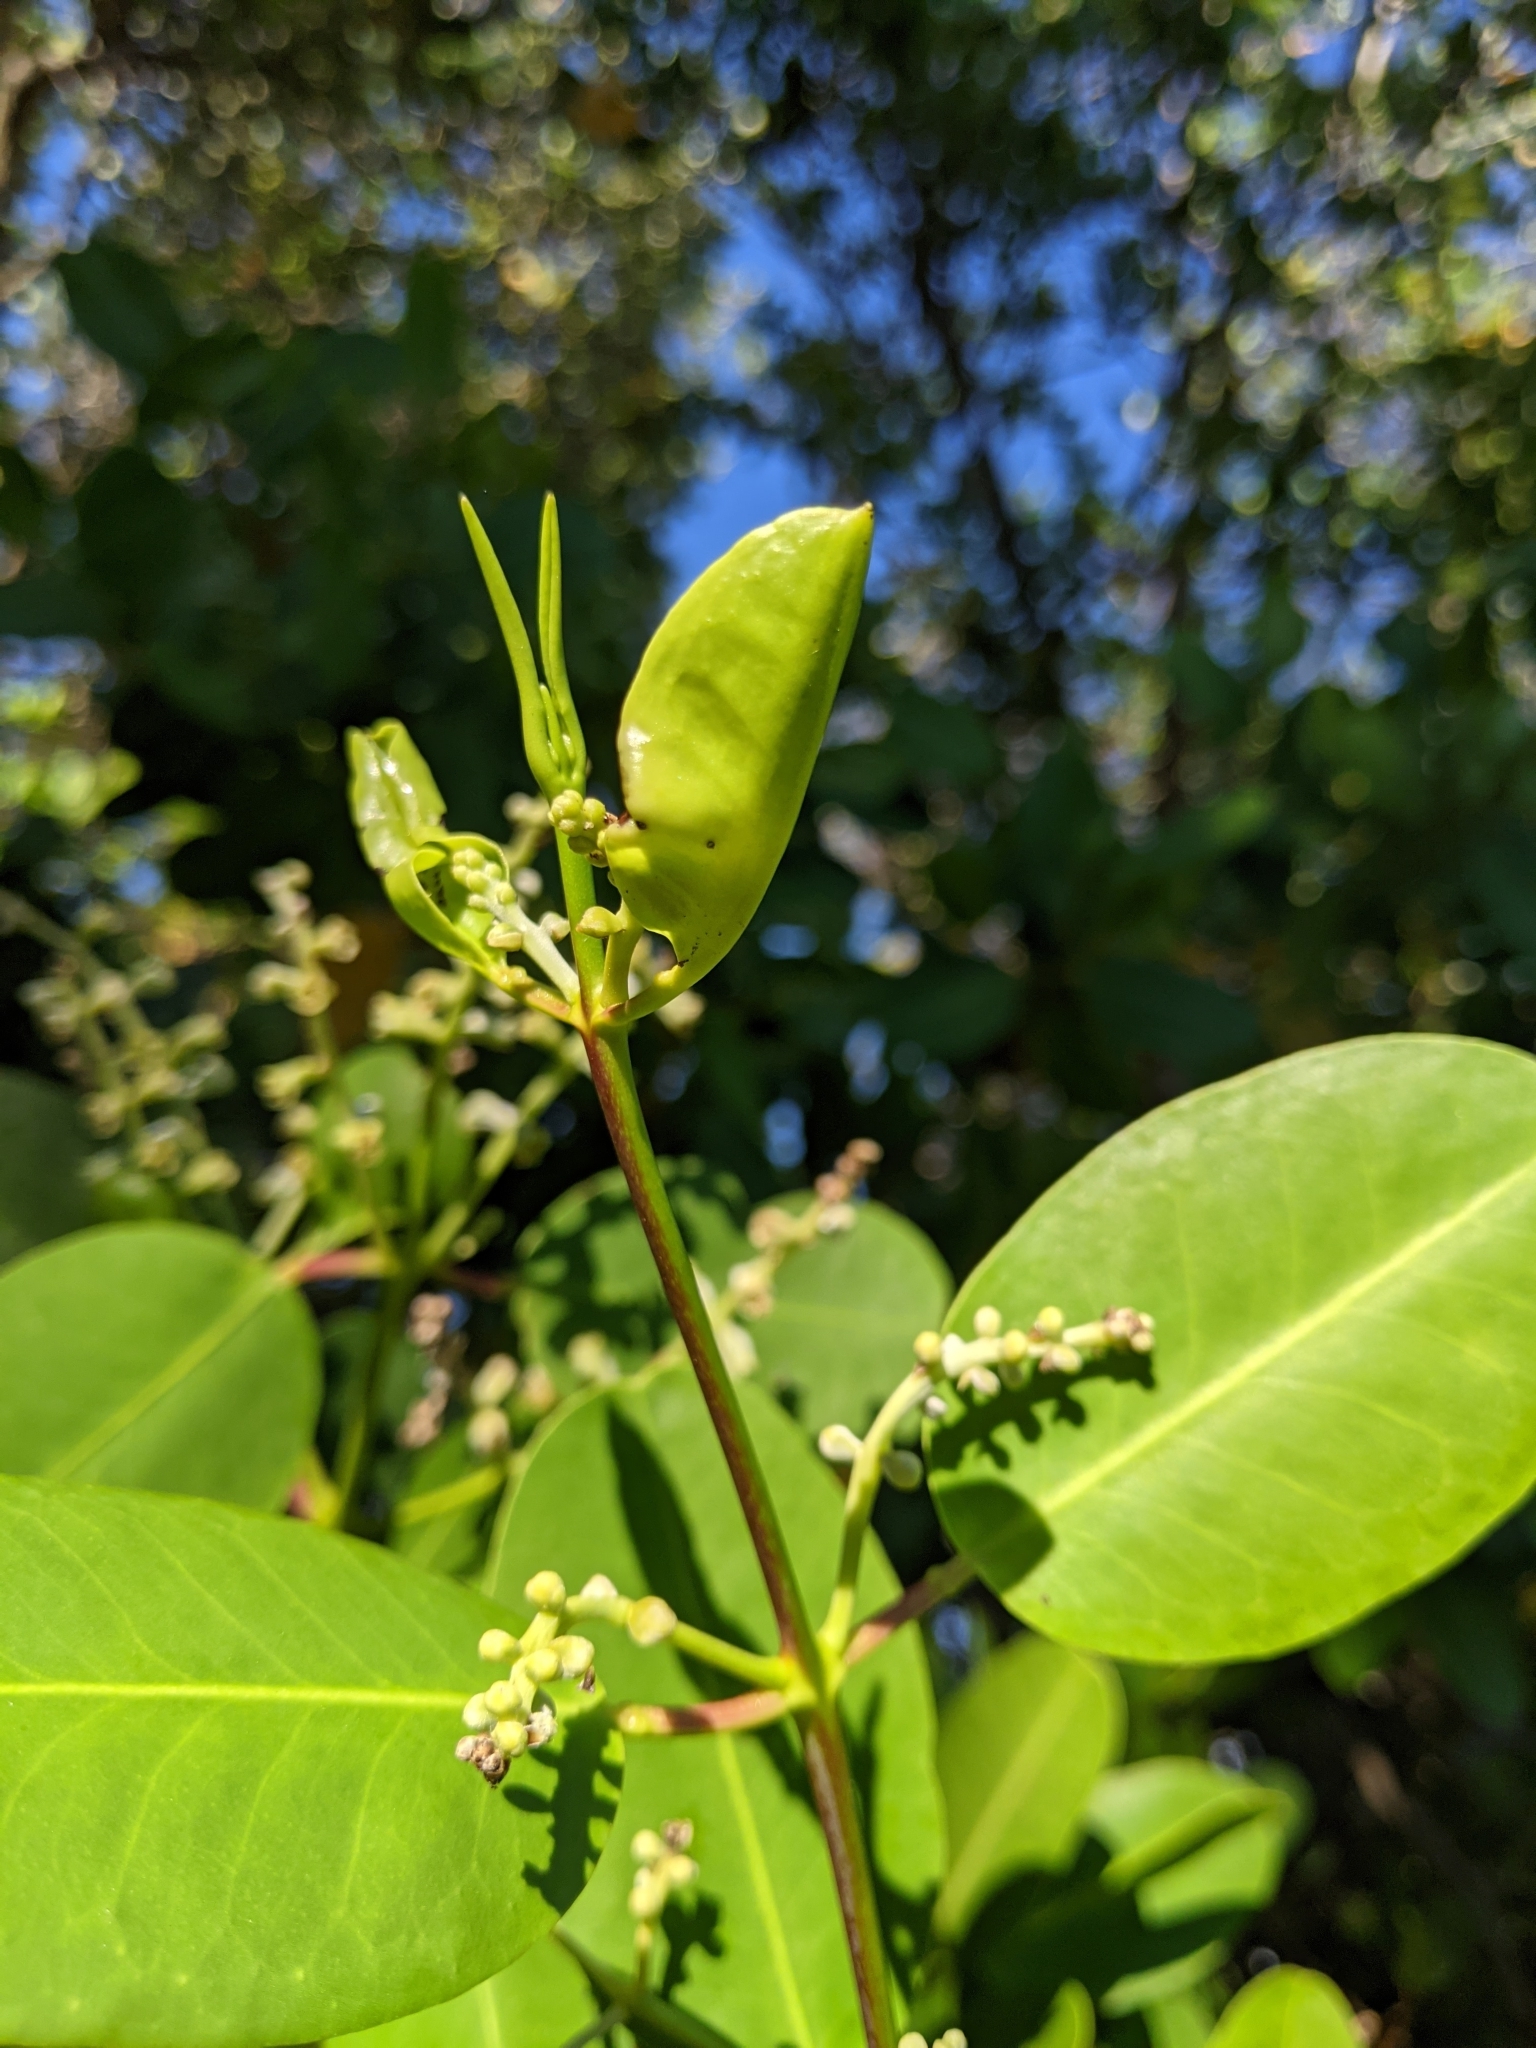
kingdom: Plantae
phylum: Tracheophyta
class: Magnoliopsida
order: Myrtales
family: Combretaceae
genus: Laguncularia
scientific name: Laguncularia racemosa
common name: White mangrove
